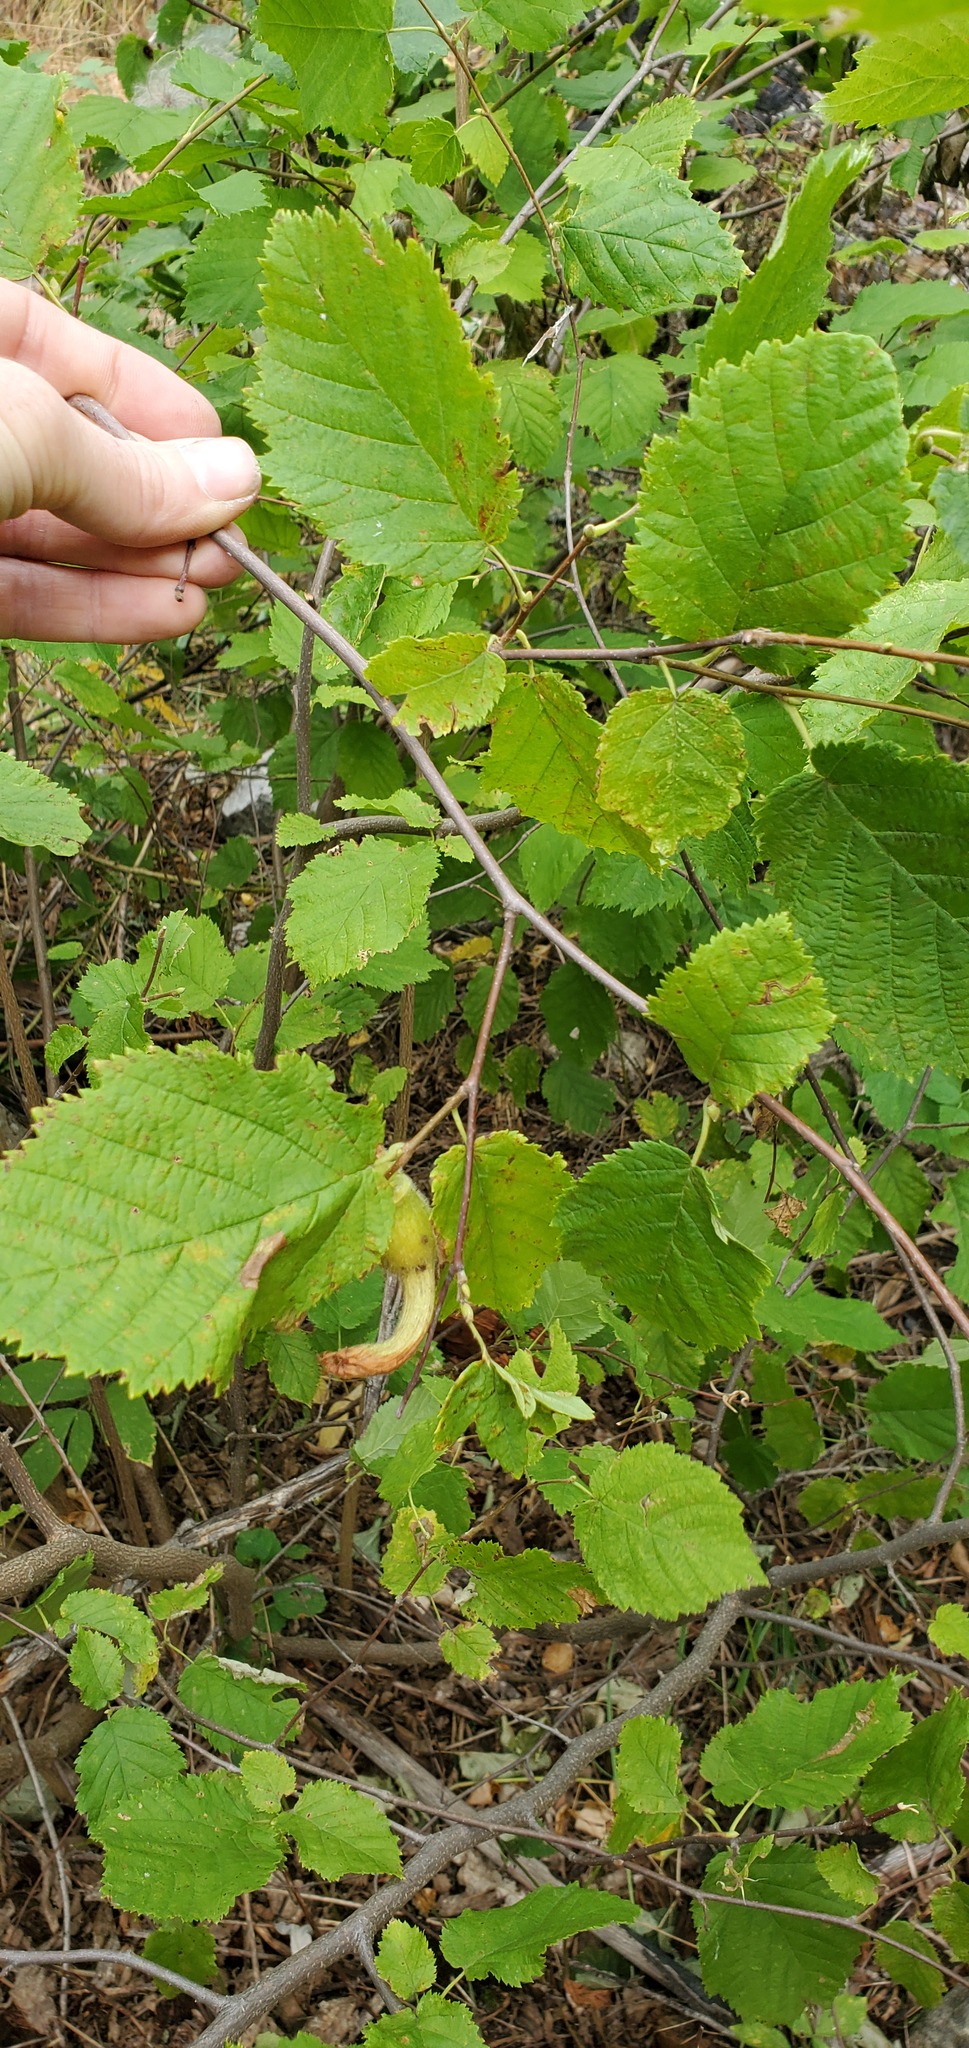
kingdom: Plantae
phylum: Tracheophyta
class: Magnoliopsida
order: Fagales
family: Betulaceae
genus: Corylus
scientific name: Corylus cornuta
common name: Beaked hazel
